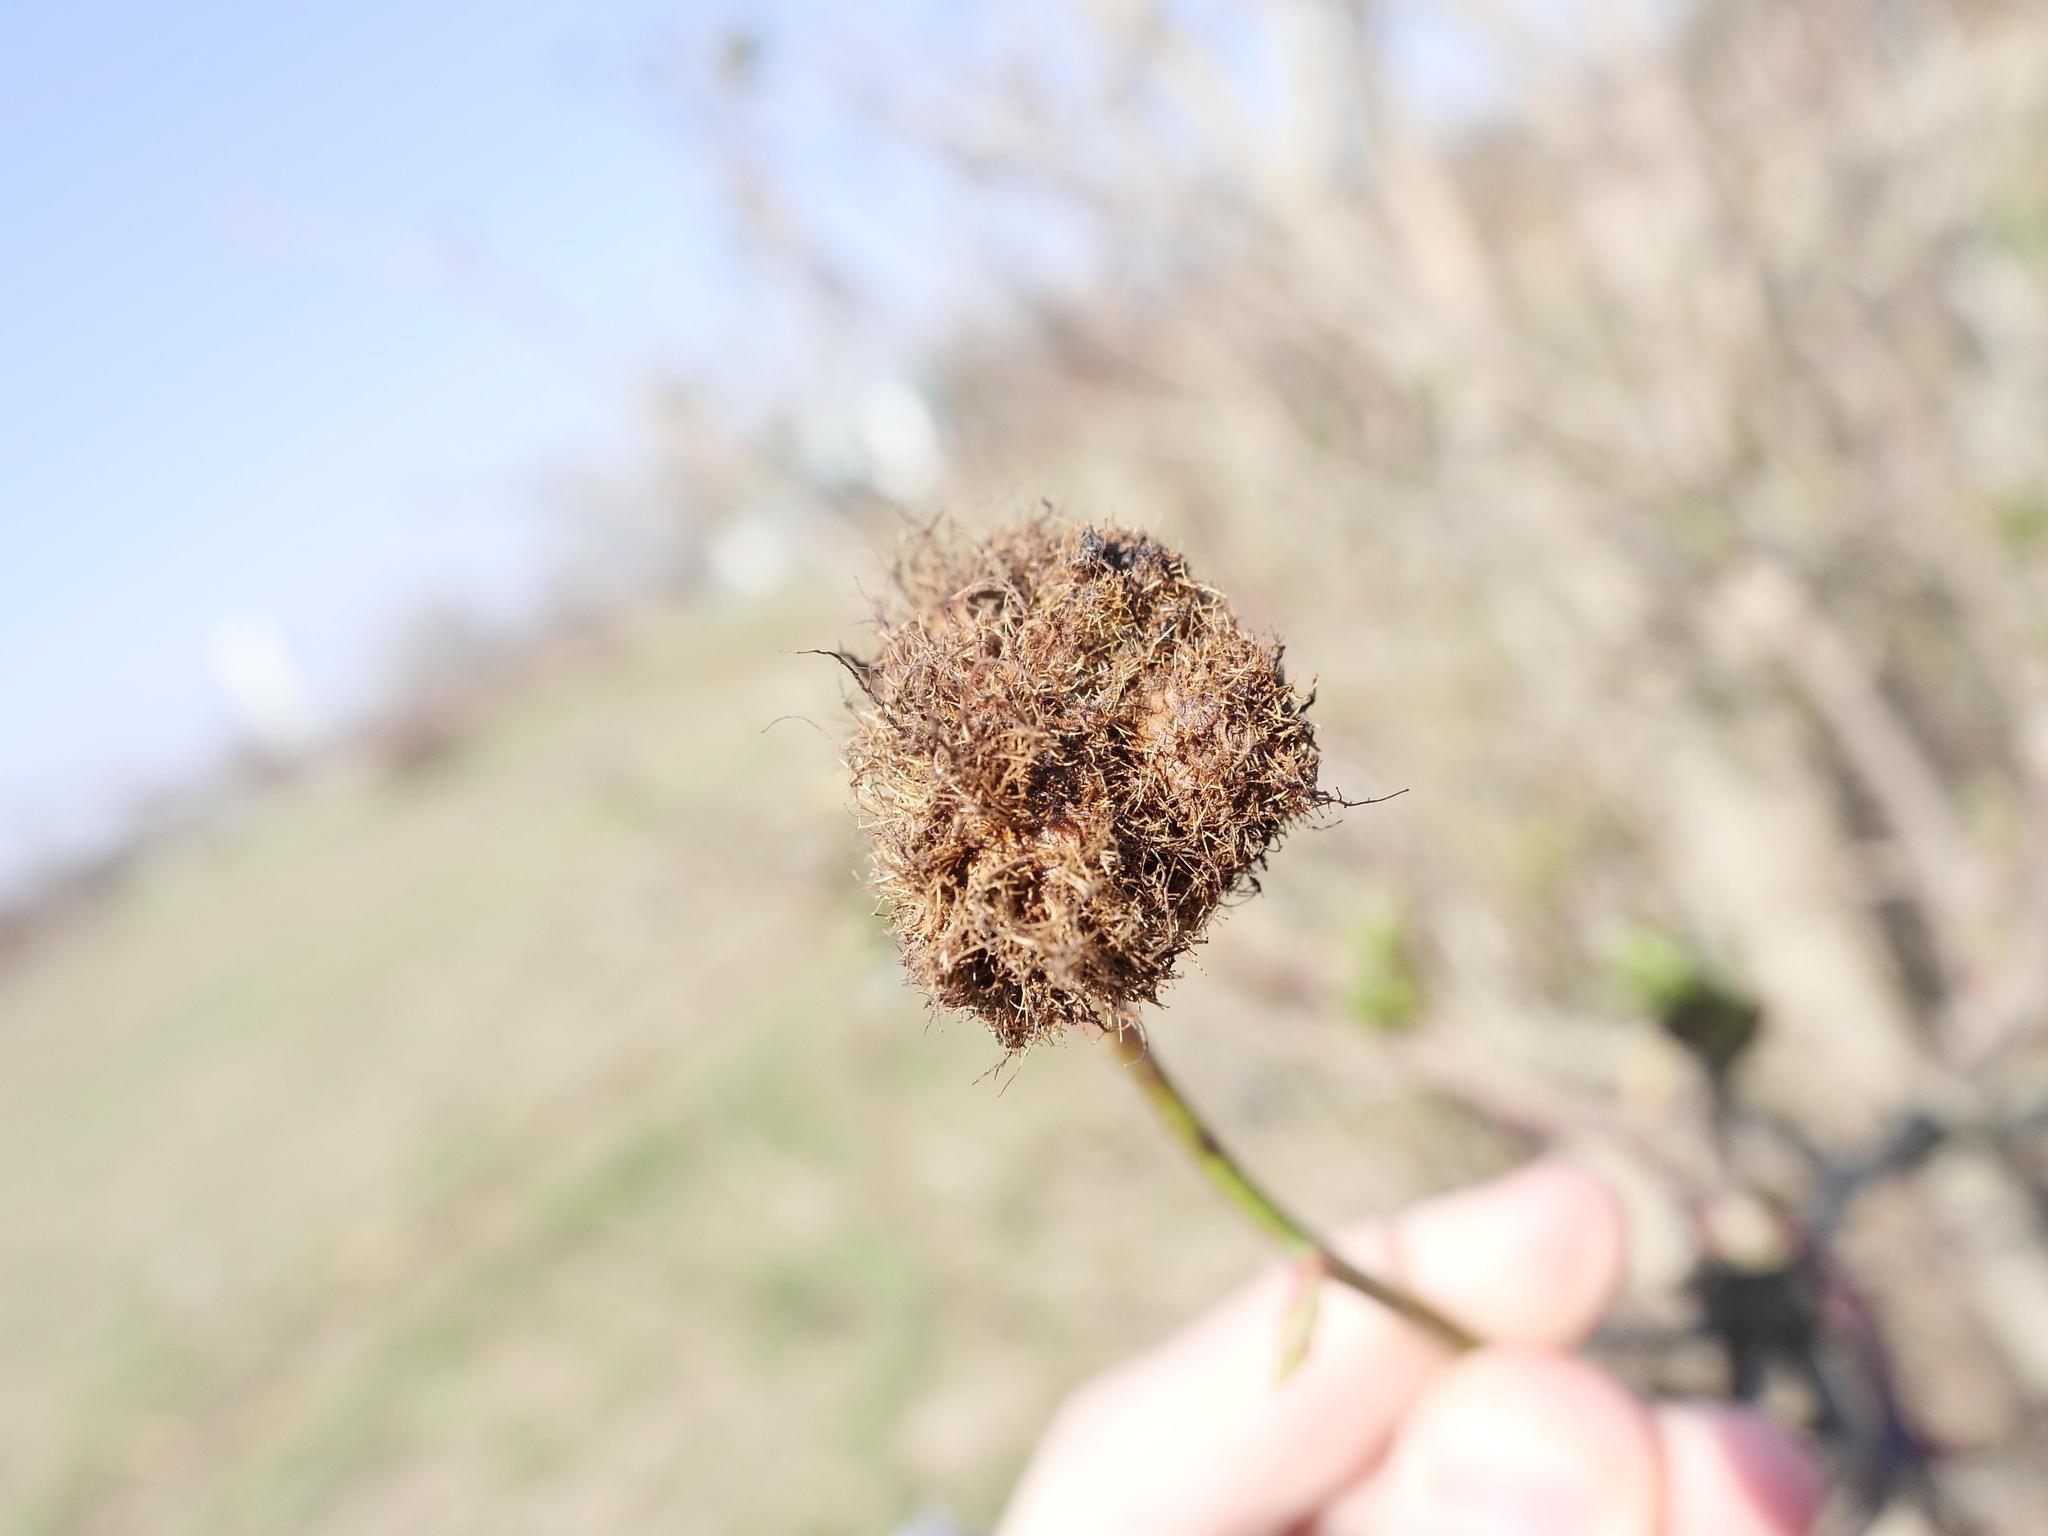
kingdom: Animalia
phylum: Arthropoda
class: Insecta
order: Hymenoptera
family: Cynipidae
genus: Diplolepis
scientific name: Diplolepis rosae
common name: Bedeguar gall
